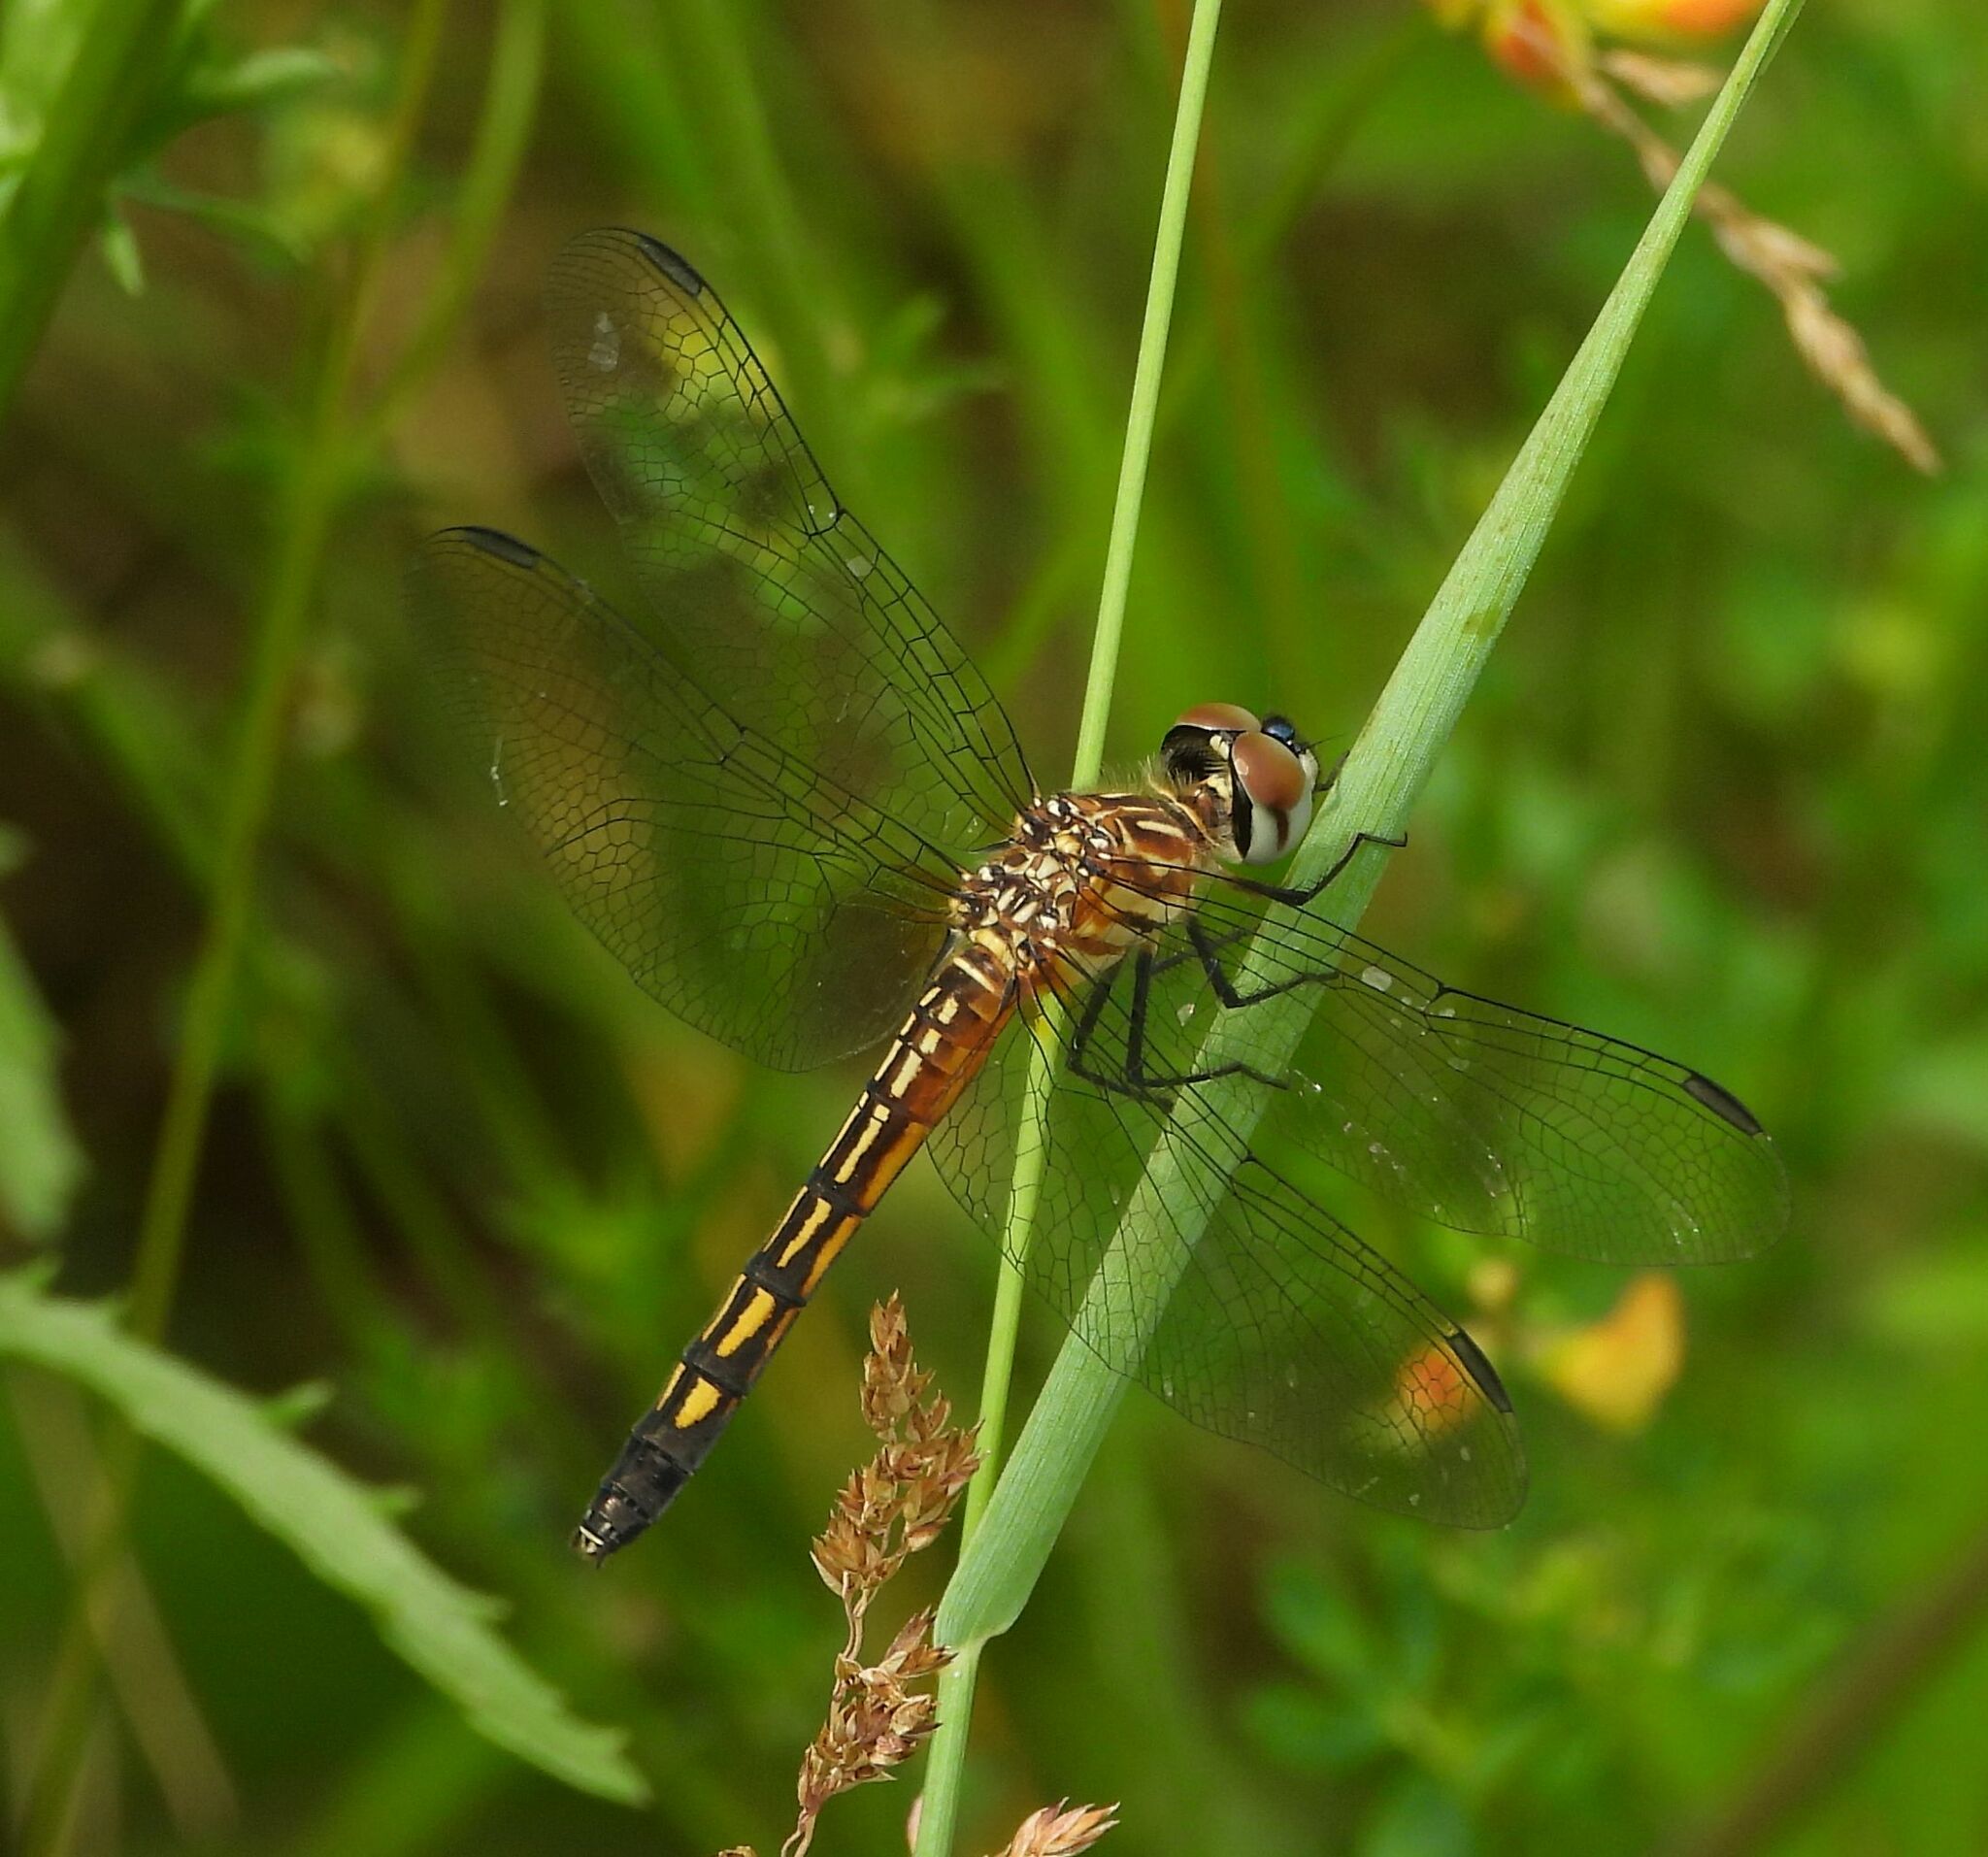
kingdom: Animalia
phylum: Arthropoda
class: Insecta
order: Odonata
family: Libellulidae
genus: Pachydiplax
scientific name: Pachydiplax longipennis
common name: Blue dasher
